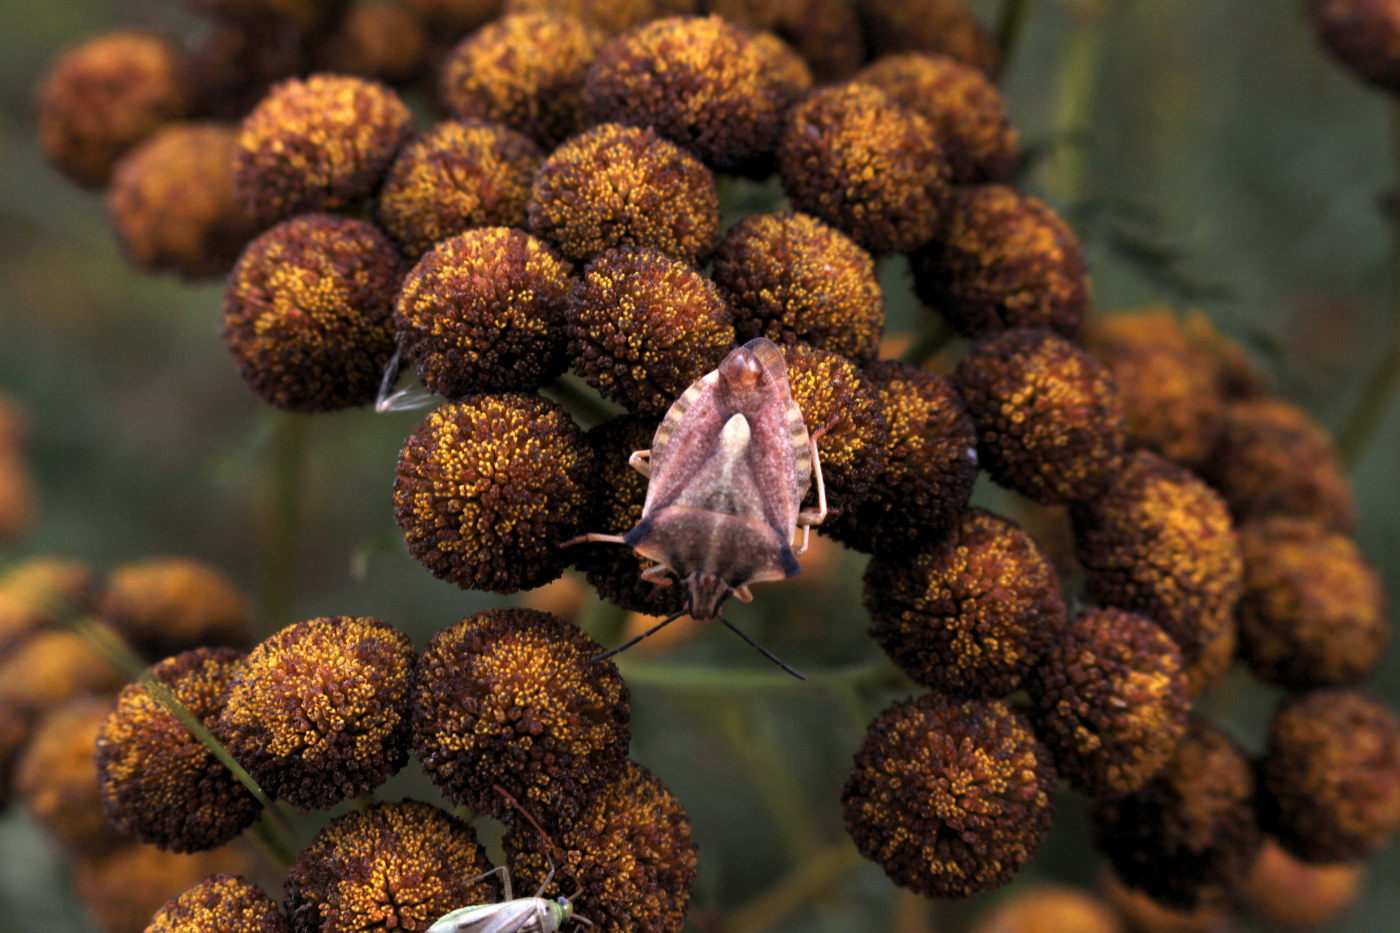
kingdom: Animalia
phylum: Arthropoda
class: Insecta
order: Hemiptera
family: Pentatomidae
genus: Carpocoris
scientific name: Carpocoris fuscispinus
